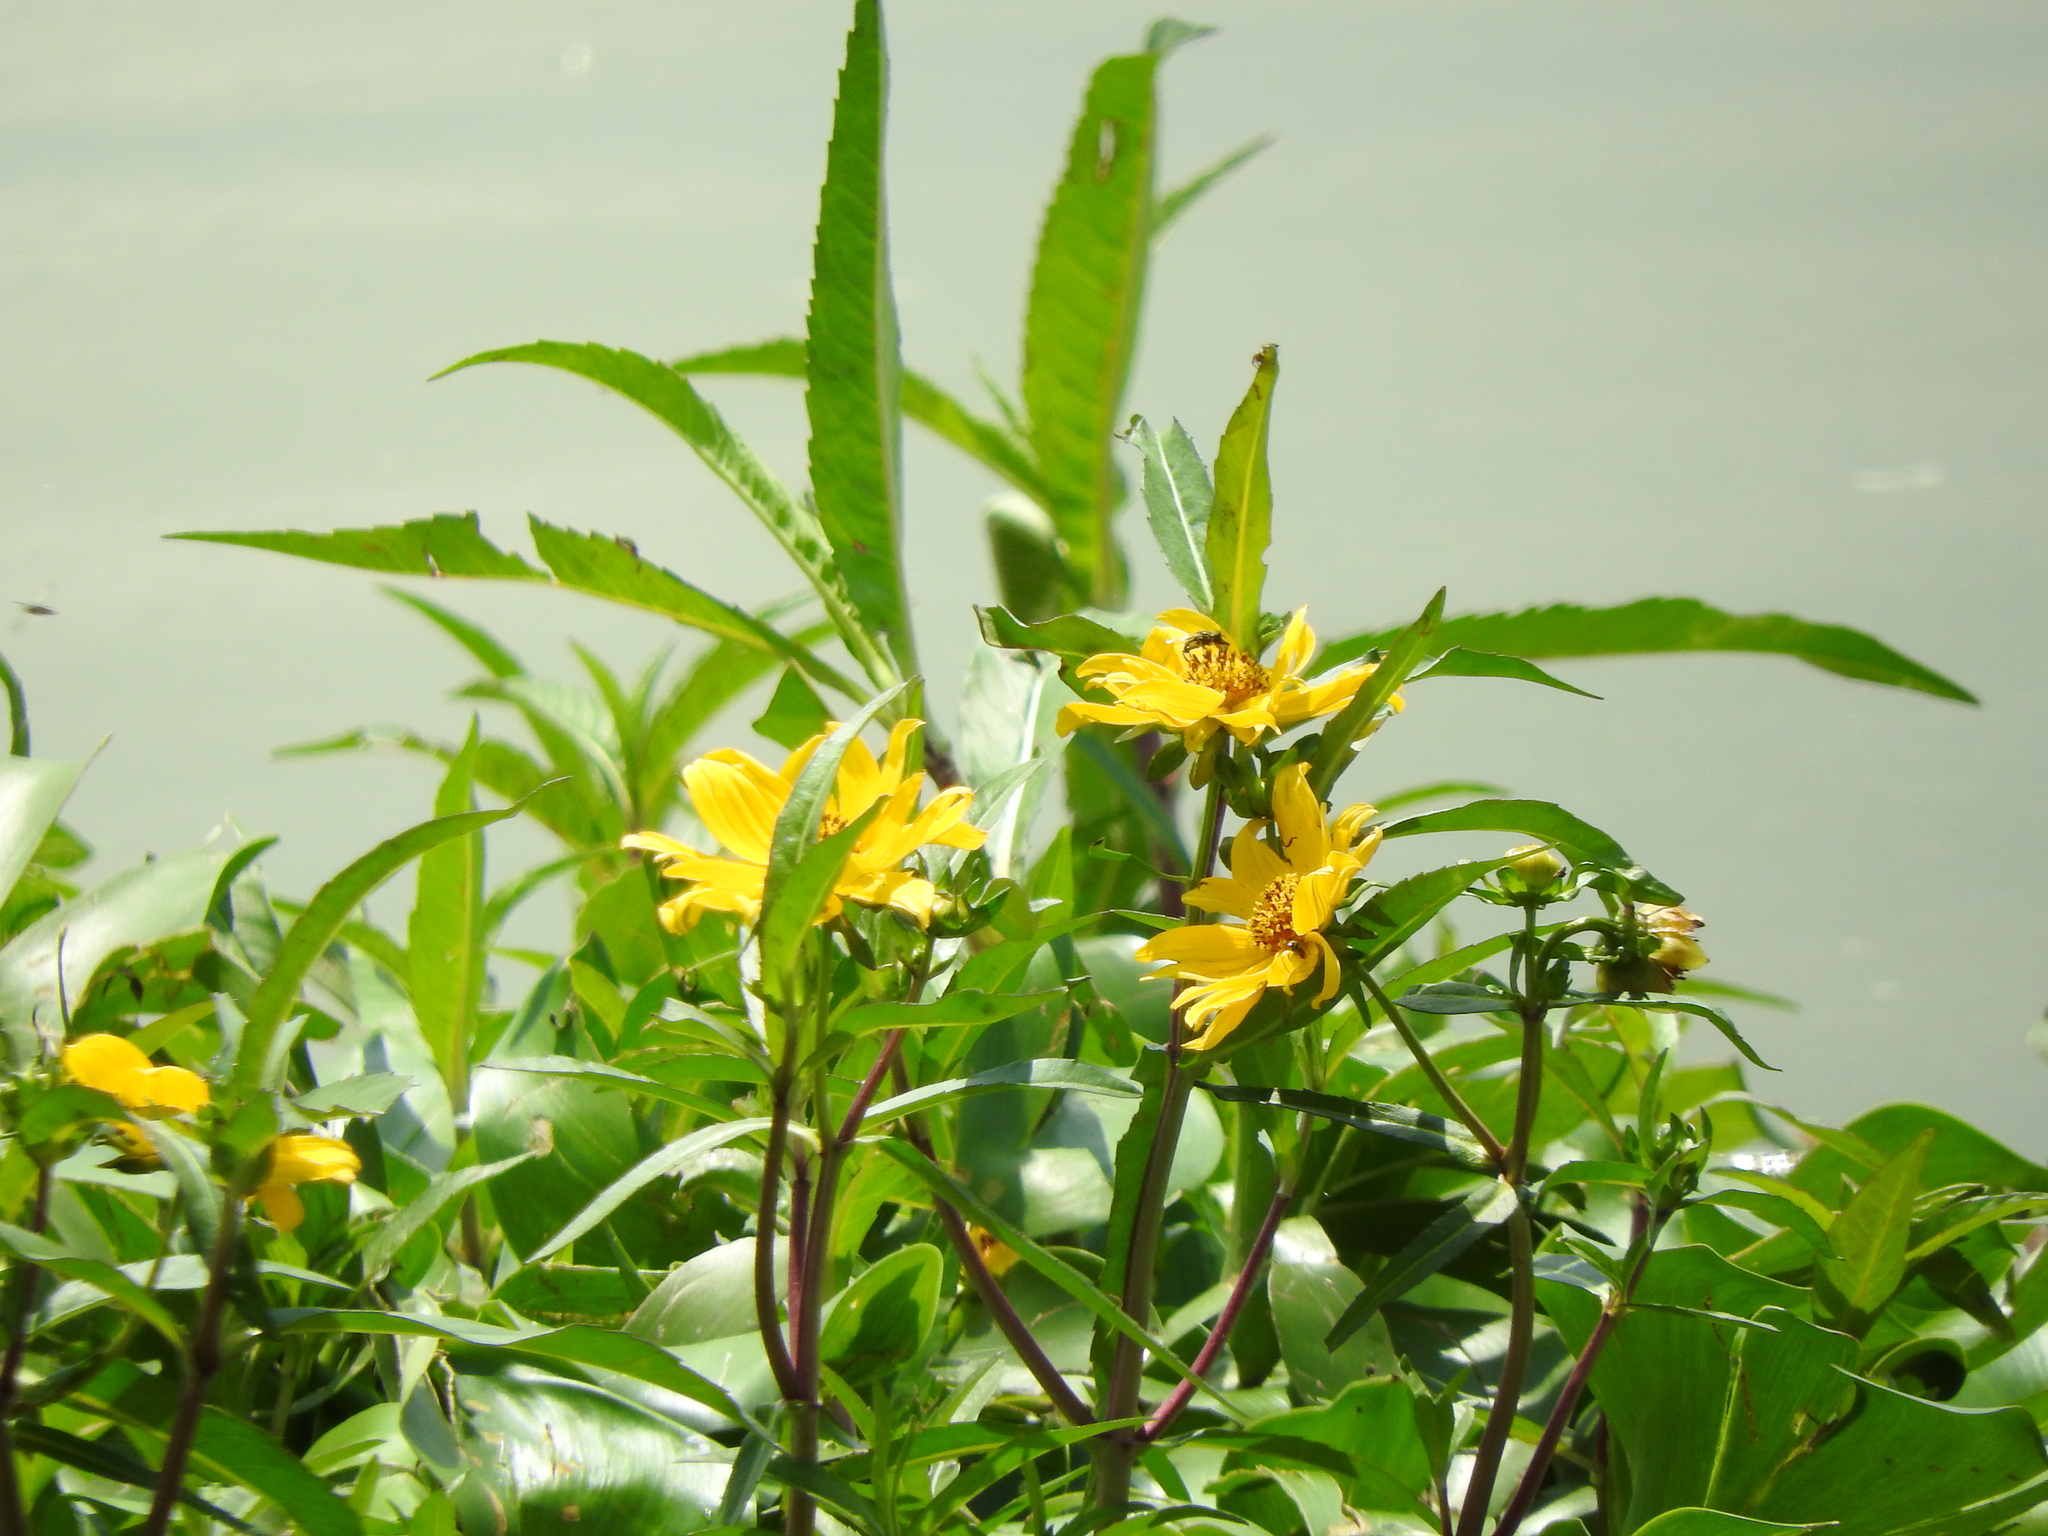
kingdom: Plantae
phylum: Tracheophyta
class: Magnoliopsida
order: Asterales
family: Asteraceae
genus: Bidens
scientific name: Bidens laevis
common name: Larger bur-marigold
